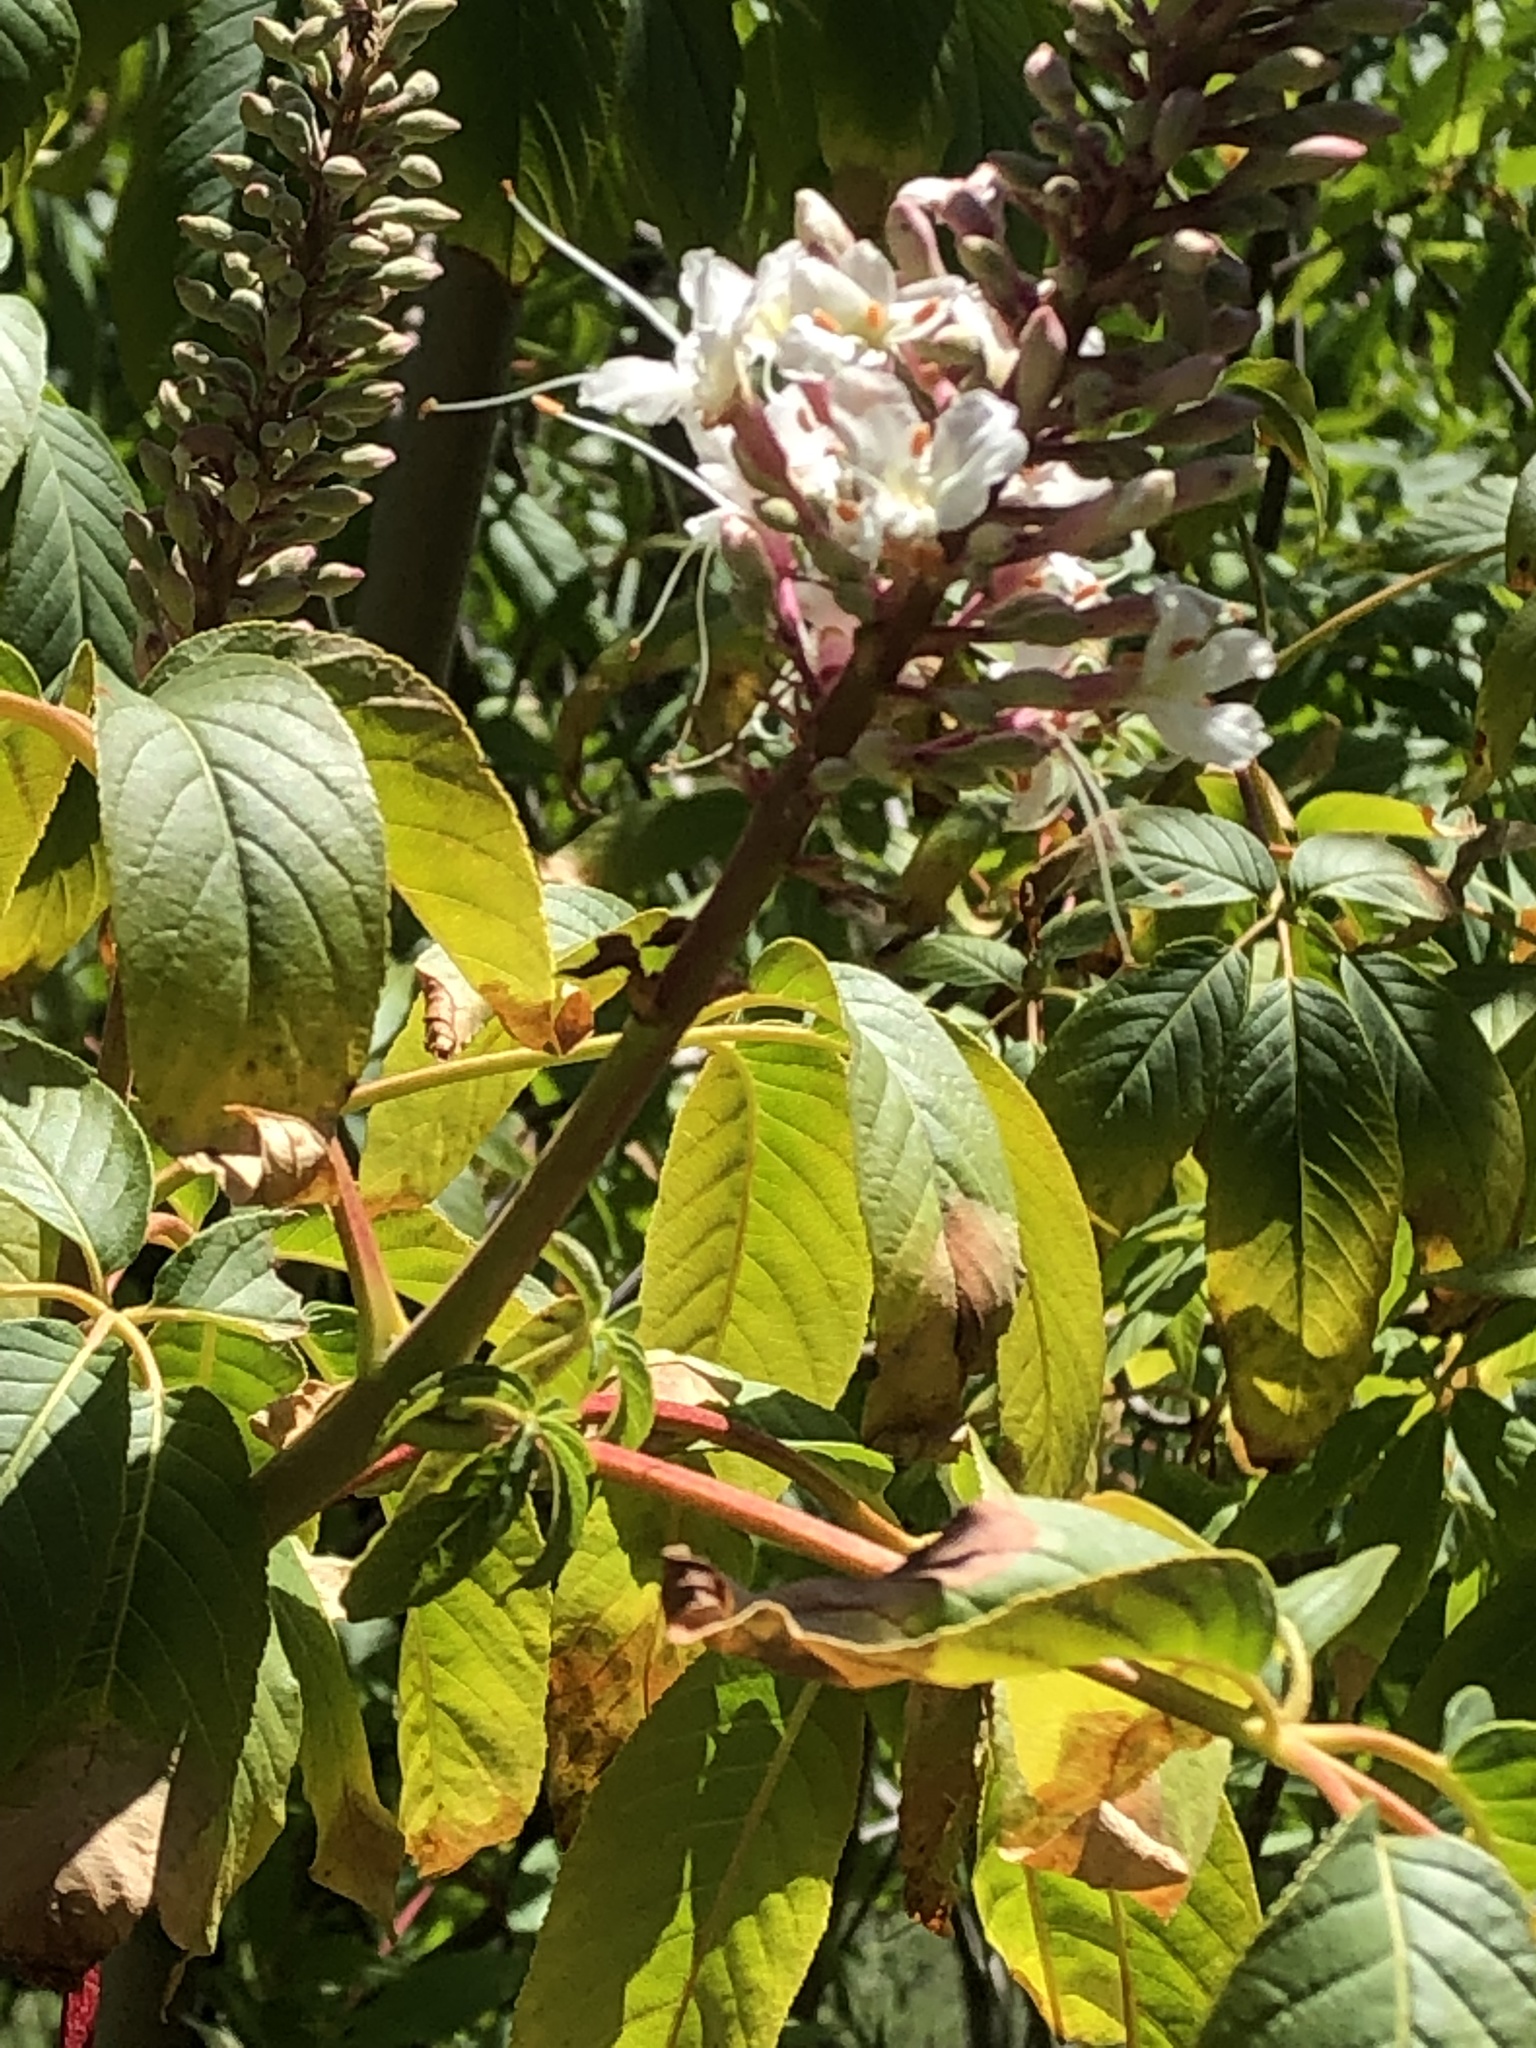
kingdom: Plantae
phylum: Tracheophyta
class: Magnoliopsida
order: Sapindales
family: Sapindaceae
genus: Aesculus
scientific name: Aesculus californica
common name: California buckeye
